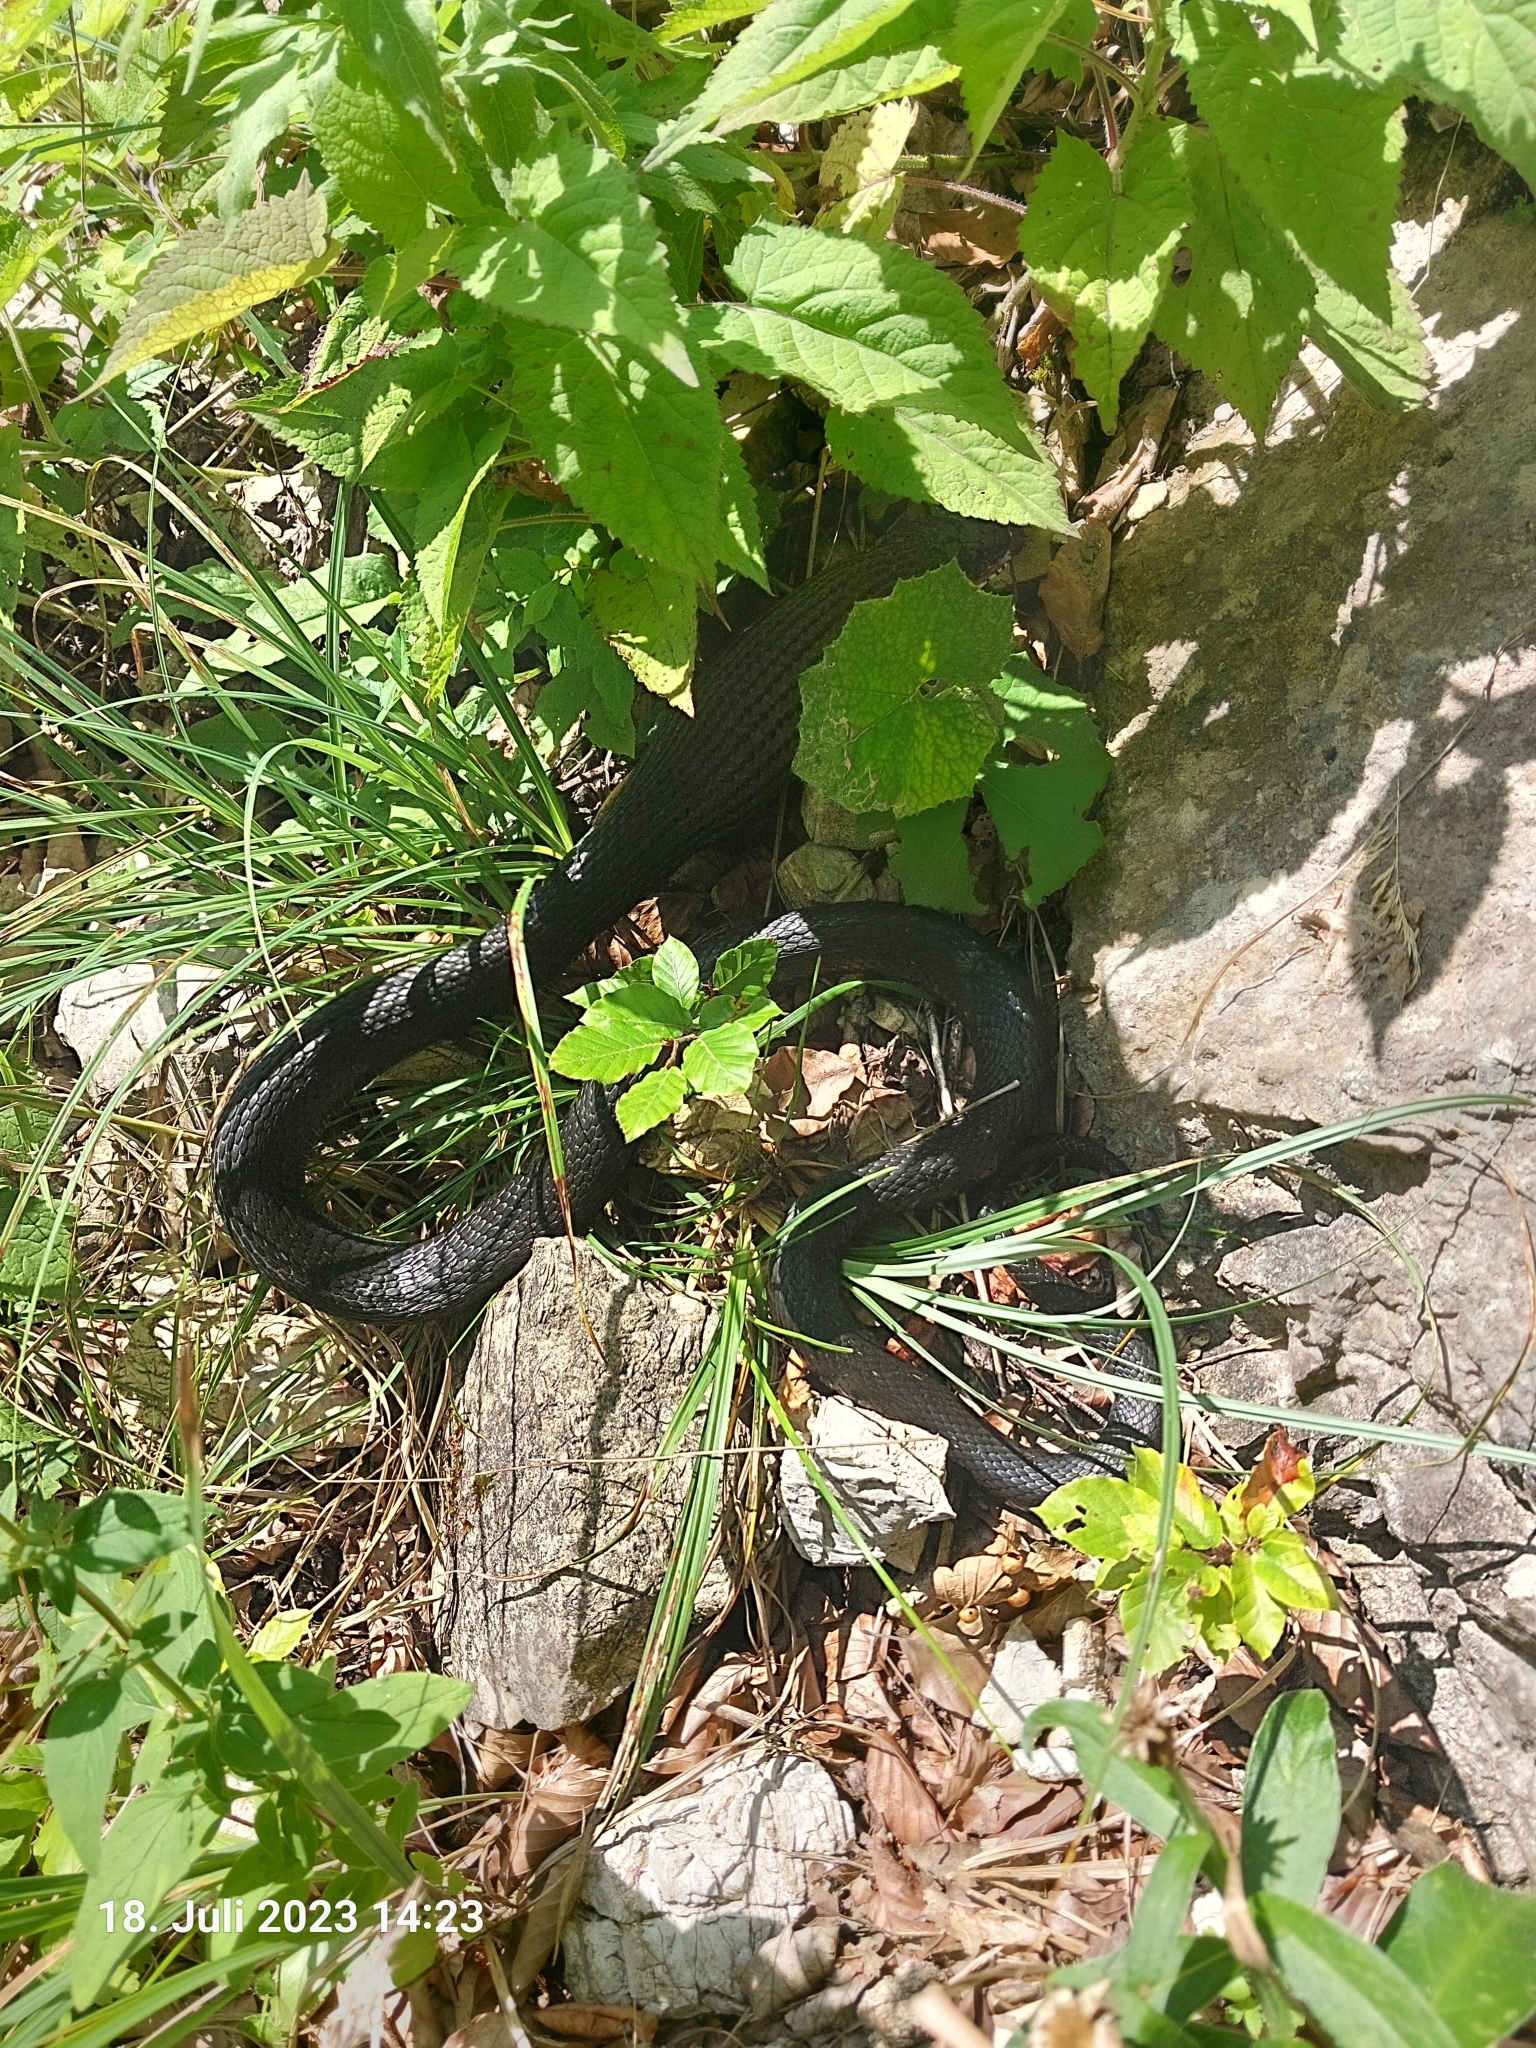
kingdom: Animalia
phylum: Chordata
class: Squamata
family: Colubridae
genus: Natrix
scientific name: Natrix natrix
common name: Grass snake
